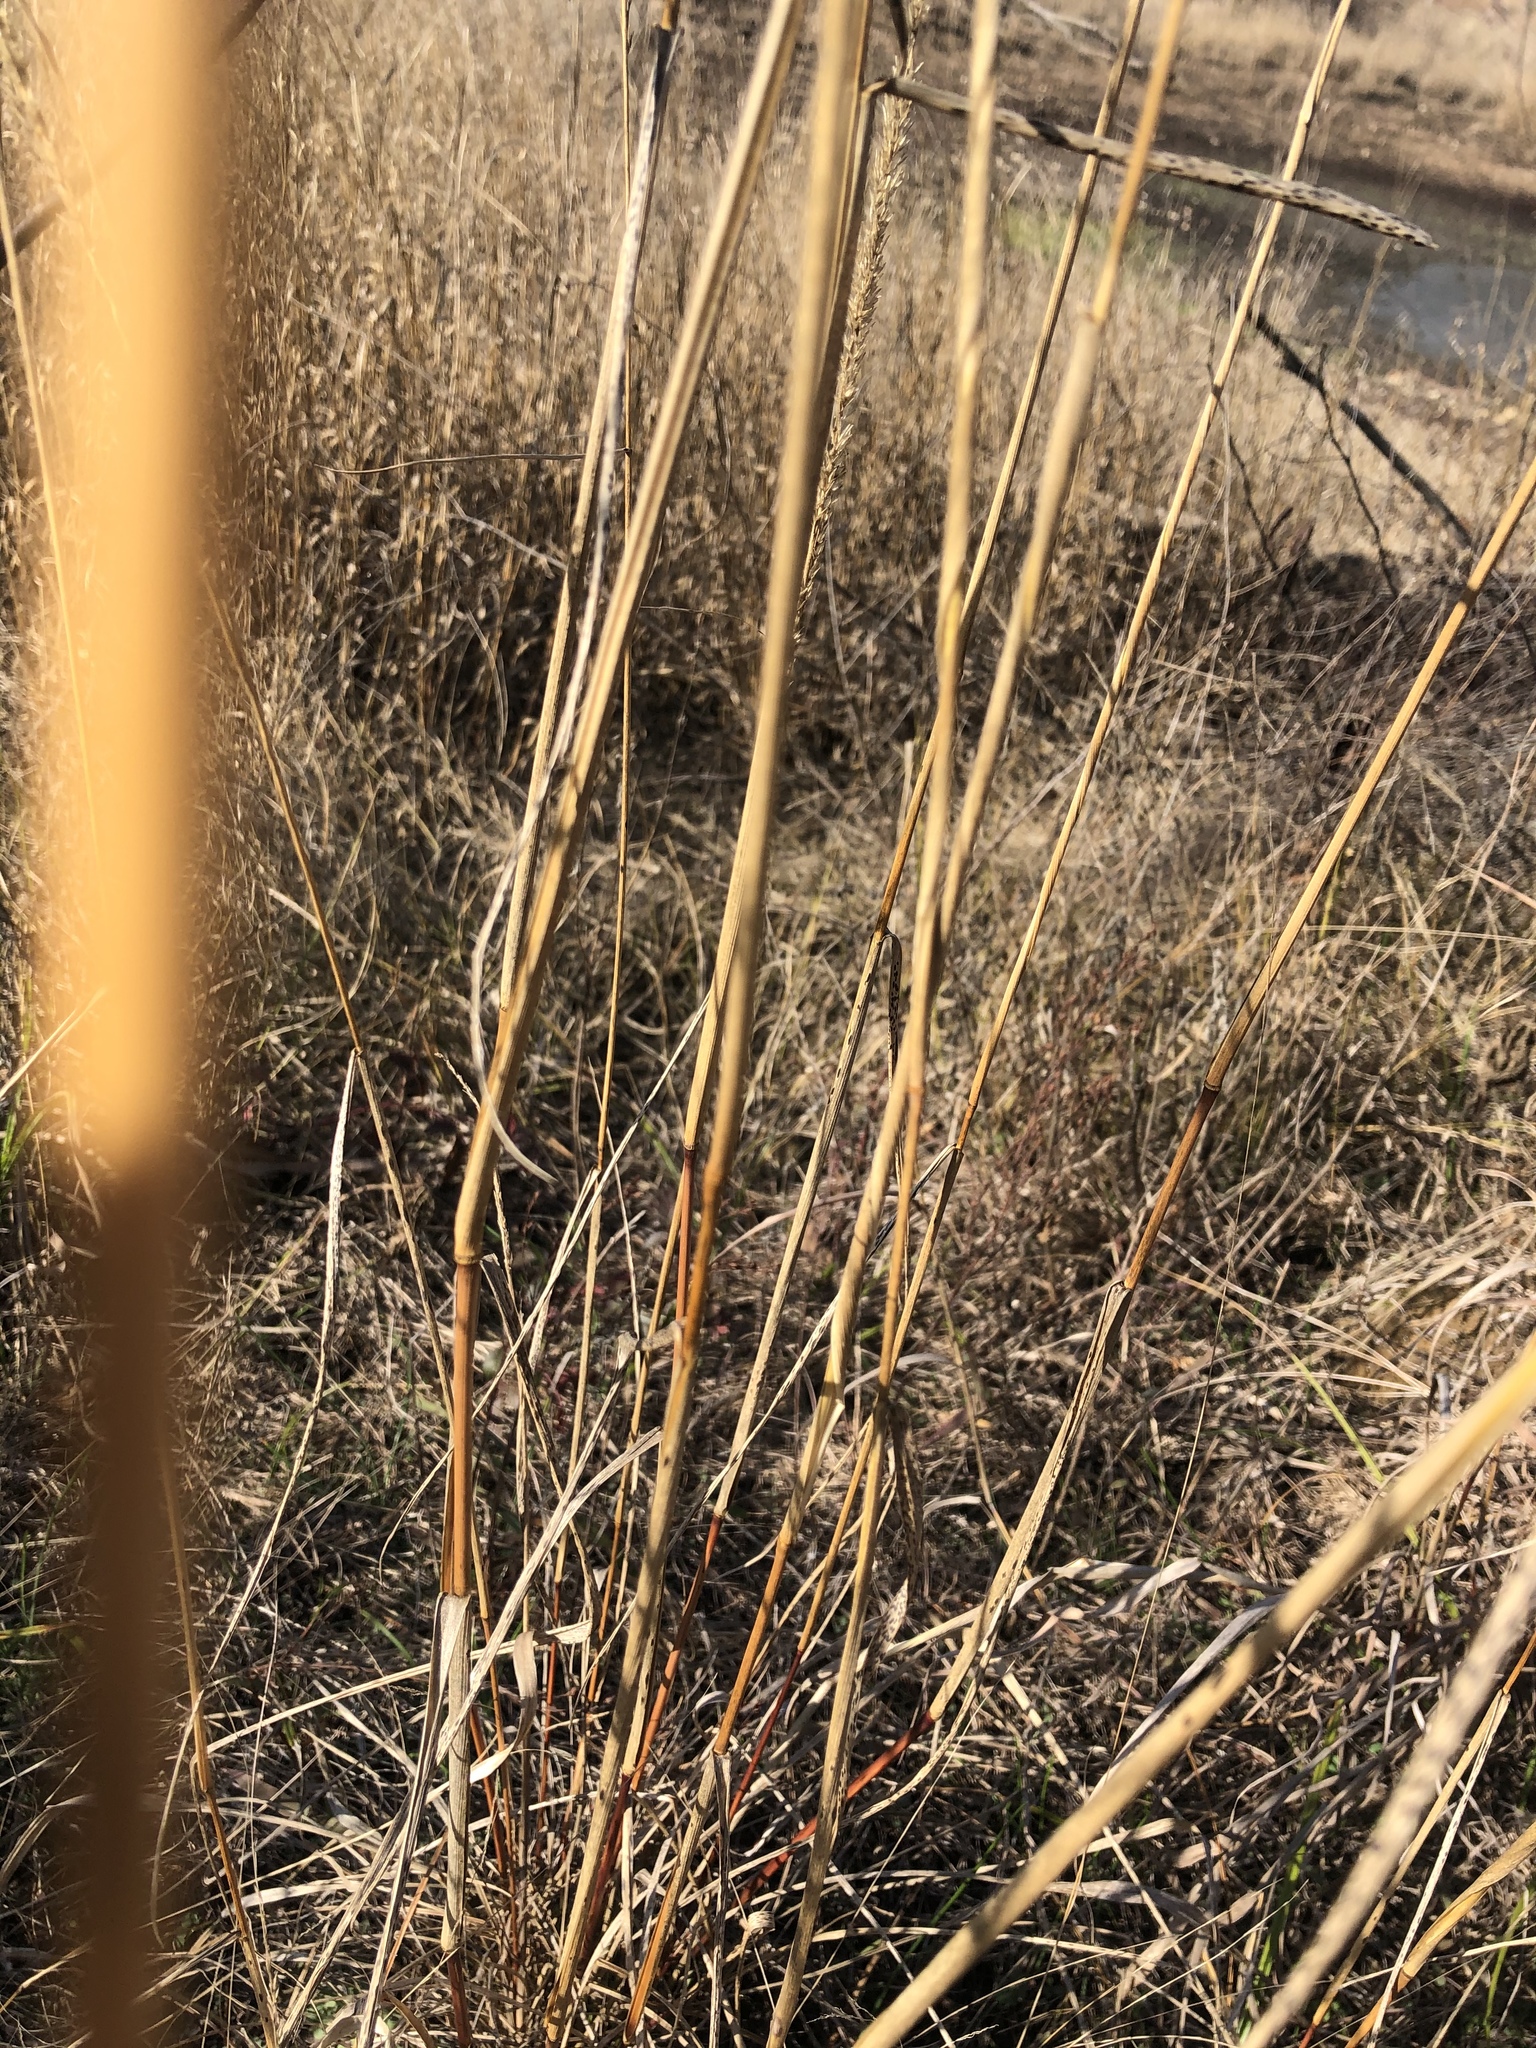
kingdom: Plantae
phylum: Tracheophyta
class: Liliopsida
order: Poales
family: Poaceae
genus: Tridens
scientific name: Tridens strictus
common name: Long-spike tridens
